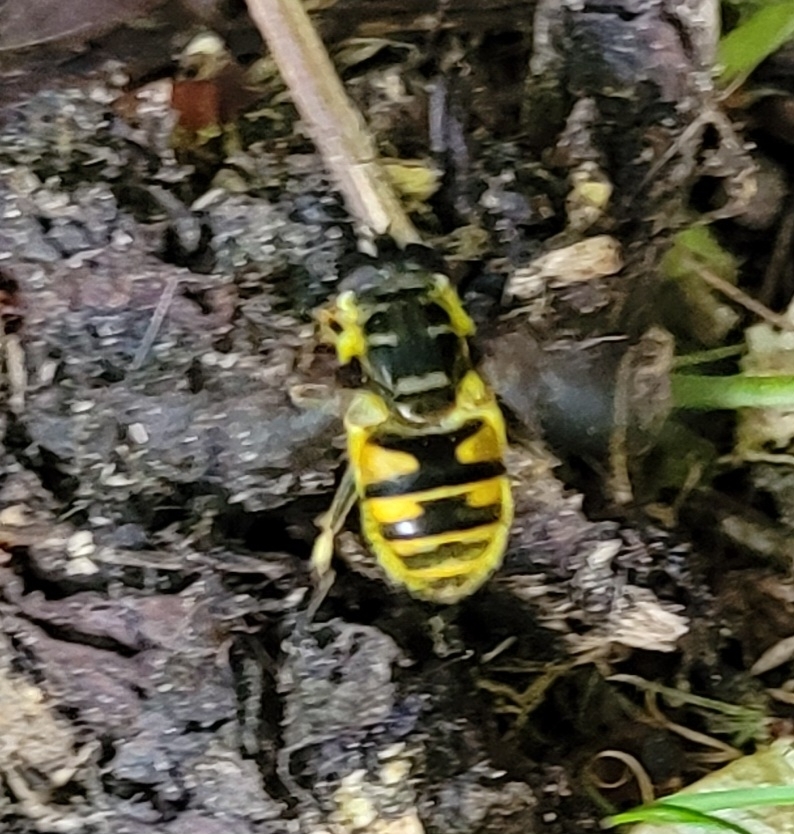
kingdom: Animalia
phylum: Arthropoda
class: Insecta
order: Diptera
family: Syrphidae
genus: Myathropa
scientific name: Myathropa florea
